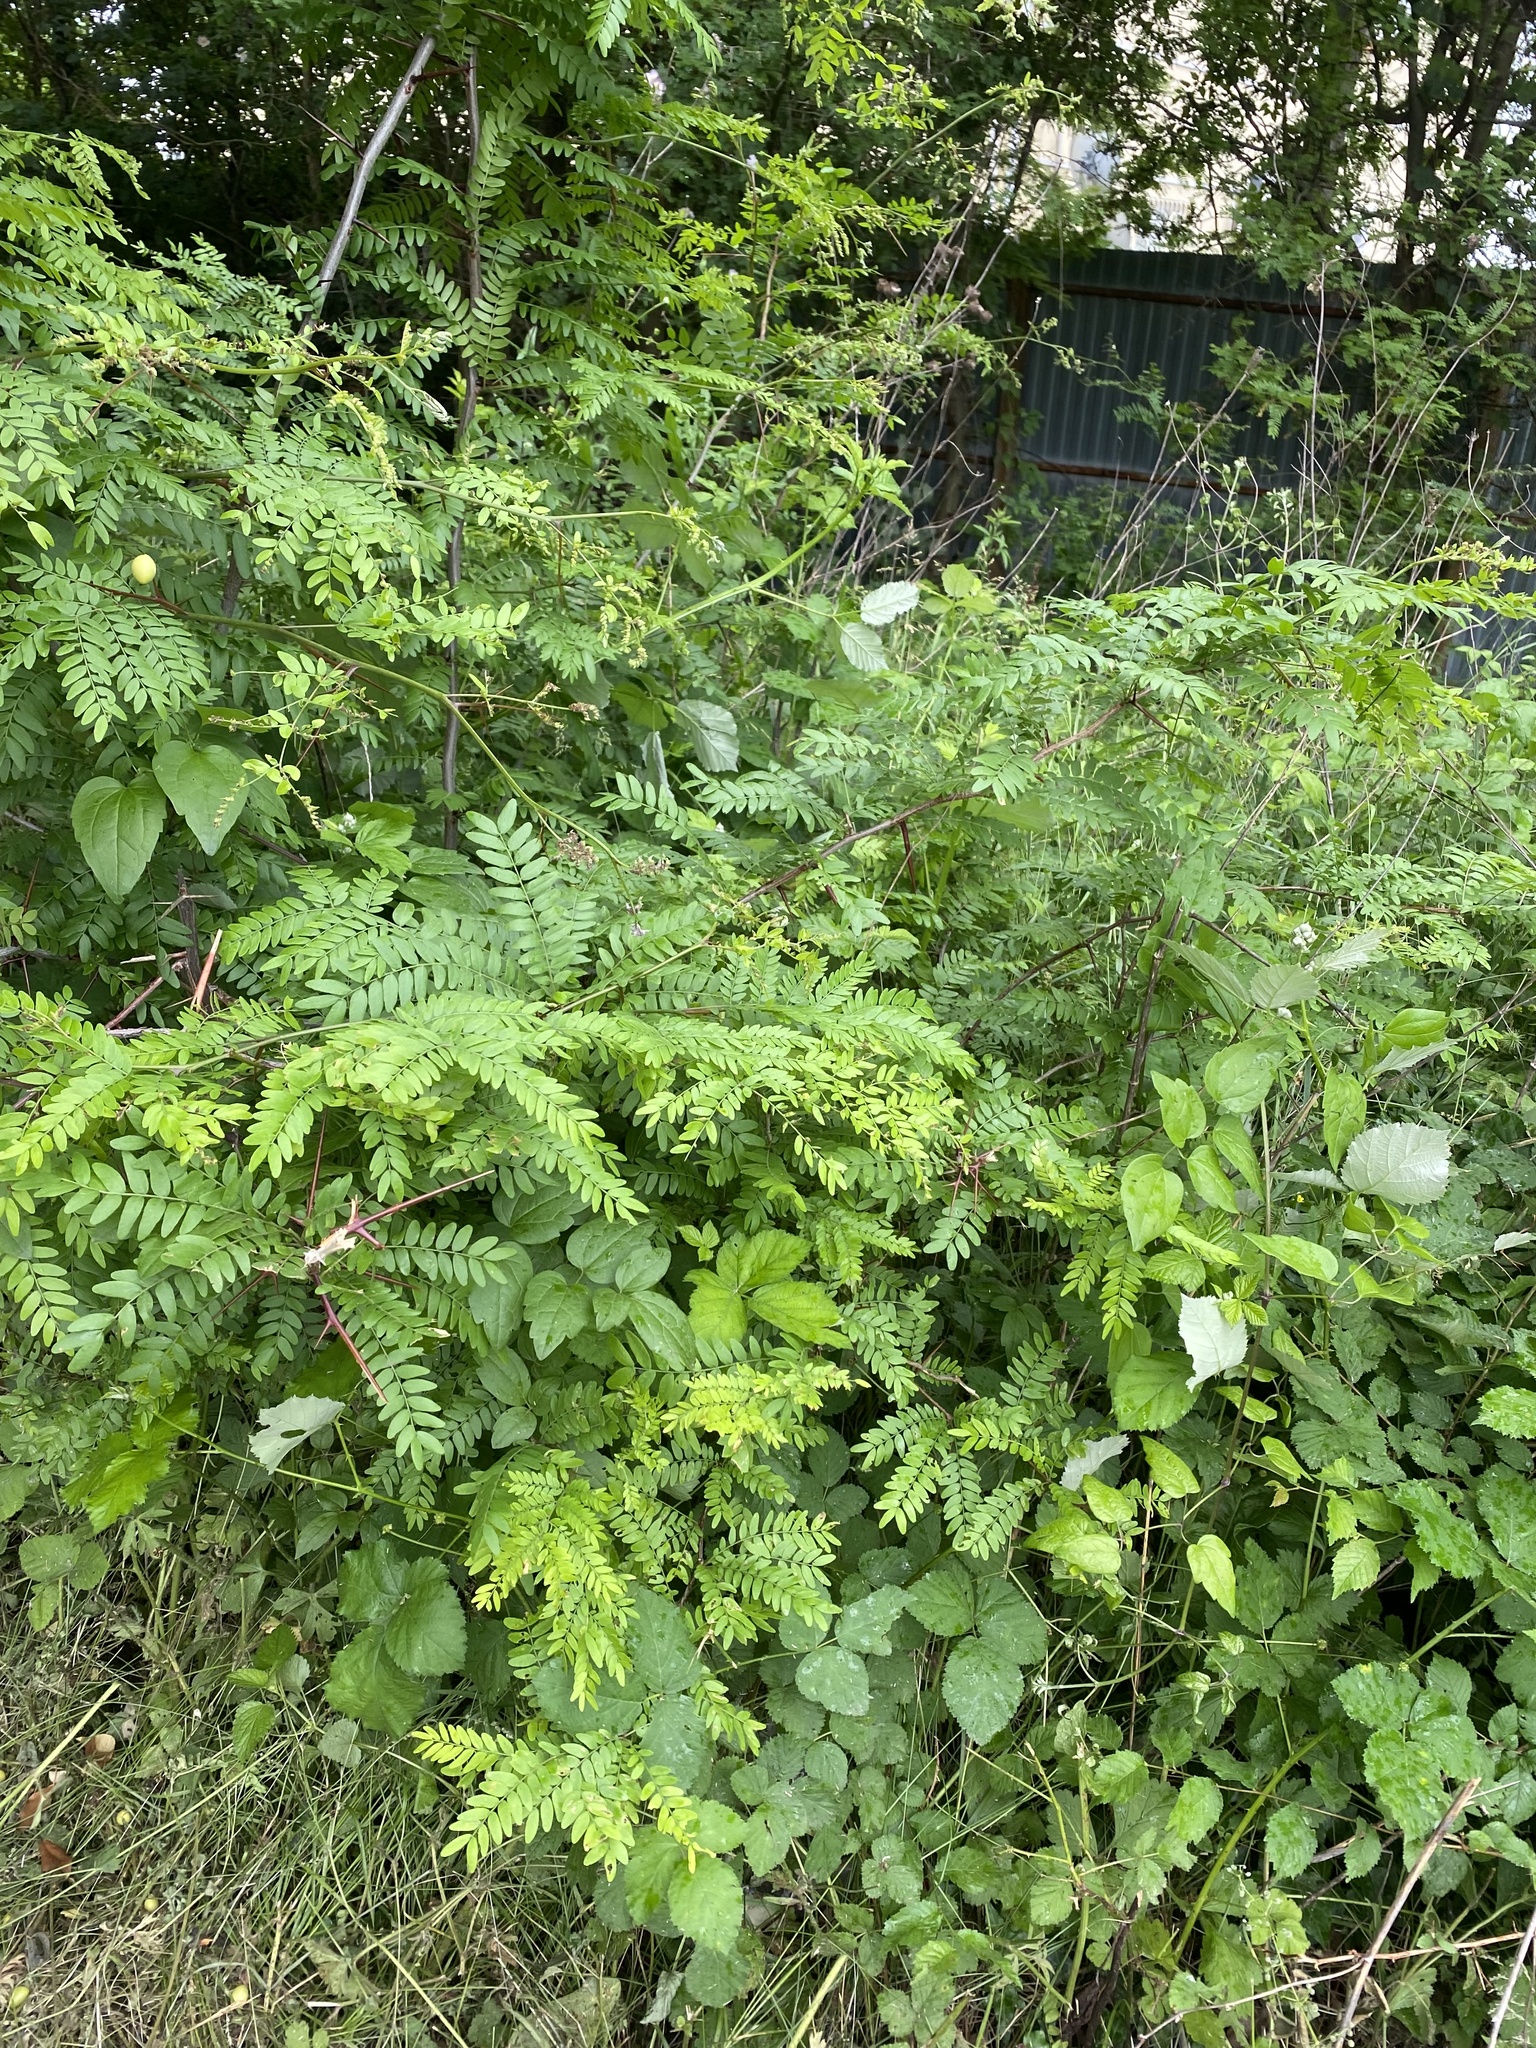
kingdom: Plantae
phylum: Tracheophyta
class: Magnoliopsida
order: Fabales
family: Fabaceae
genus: Gleditsia
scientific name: Gleditsia triacanthos
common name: Common honeylocust
